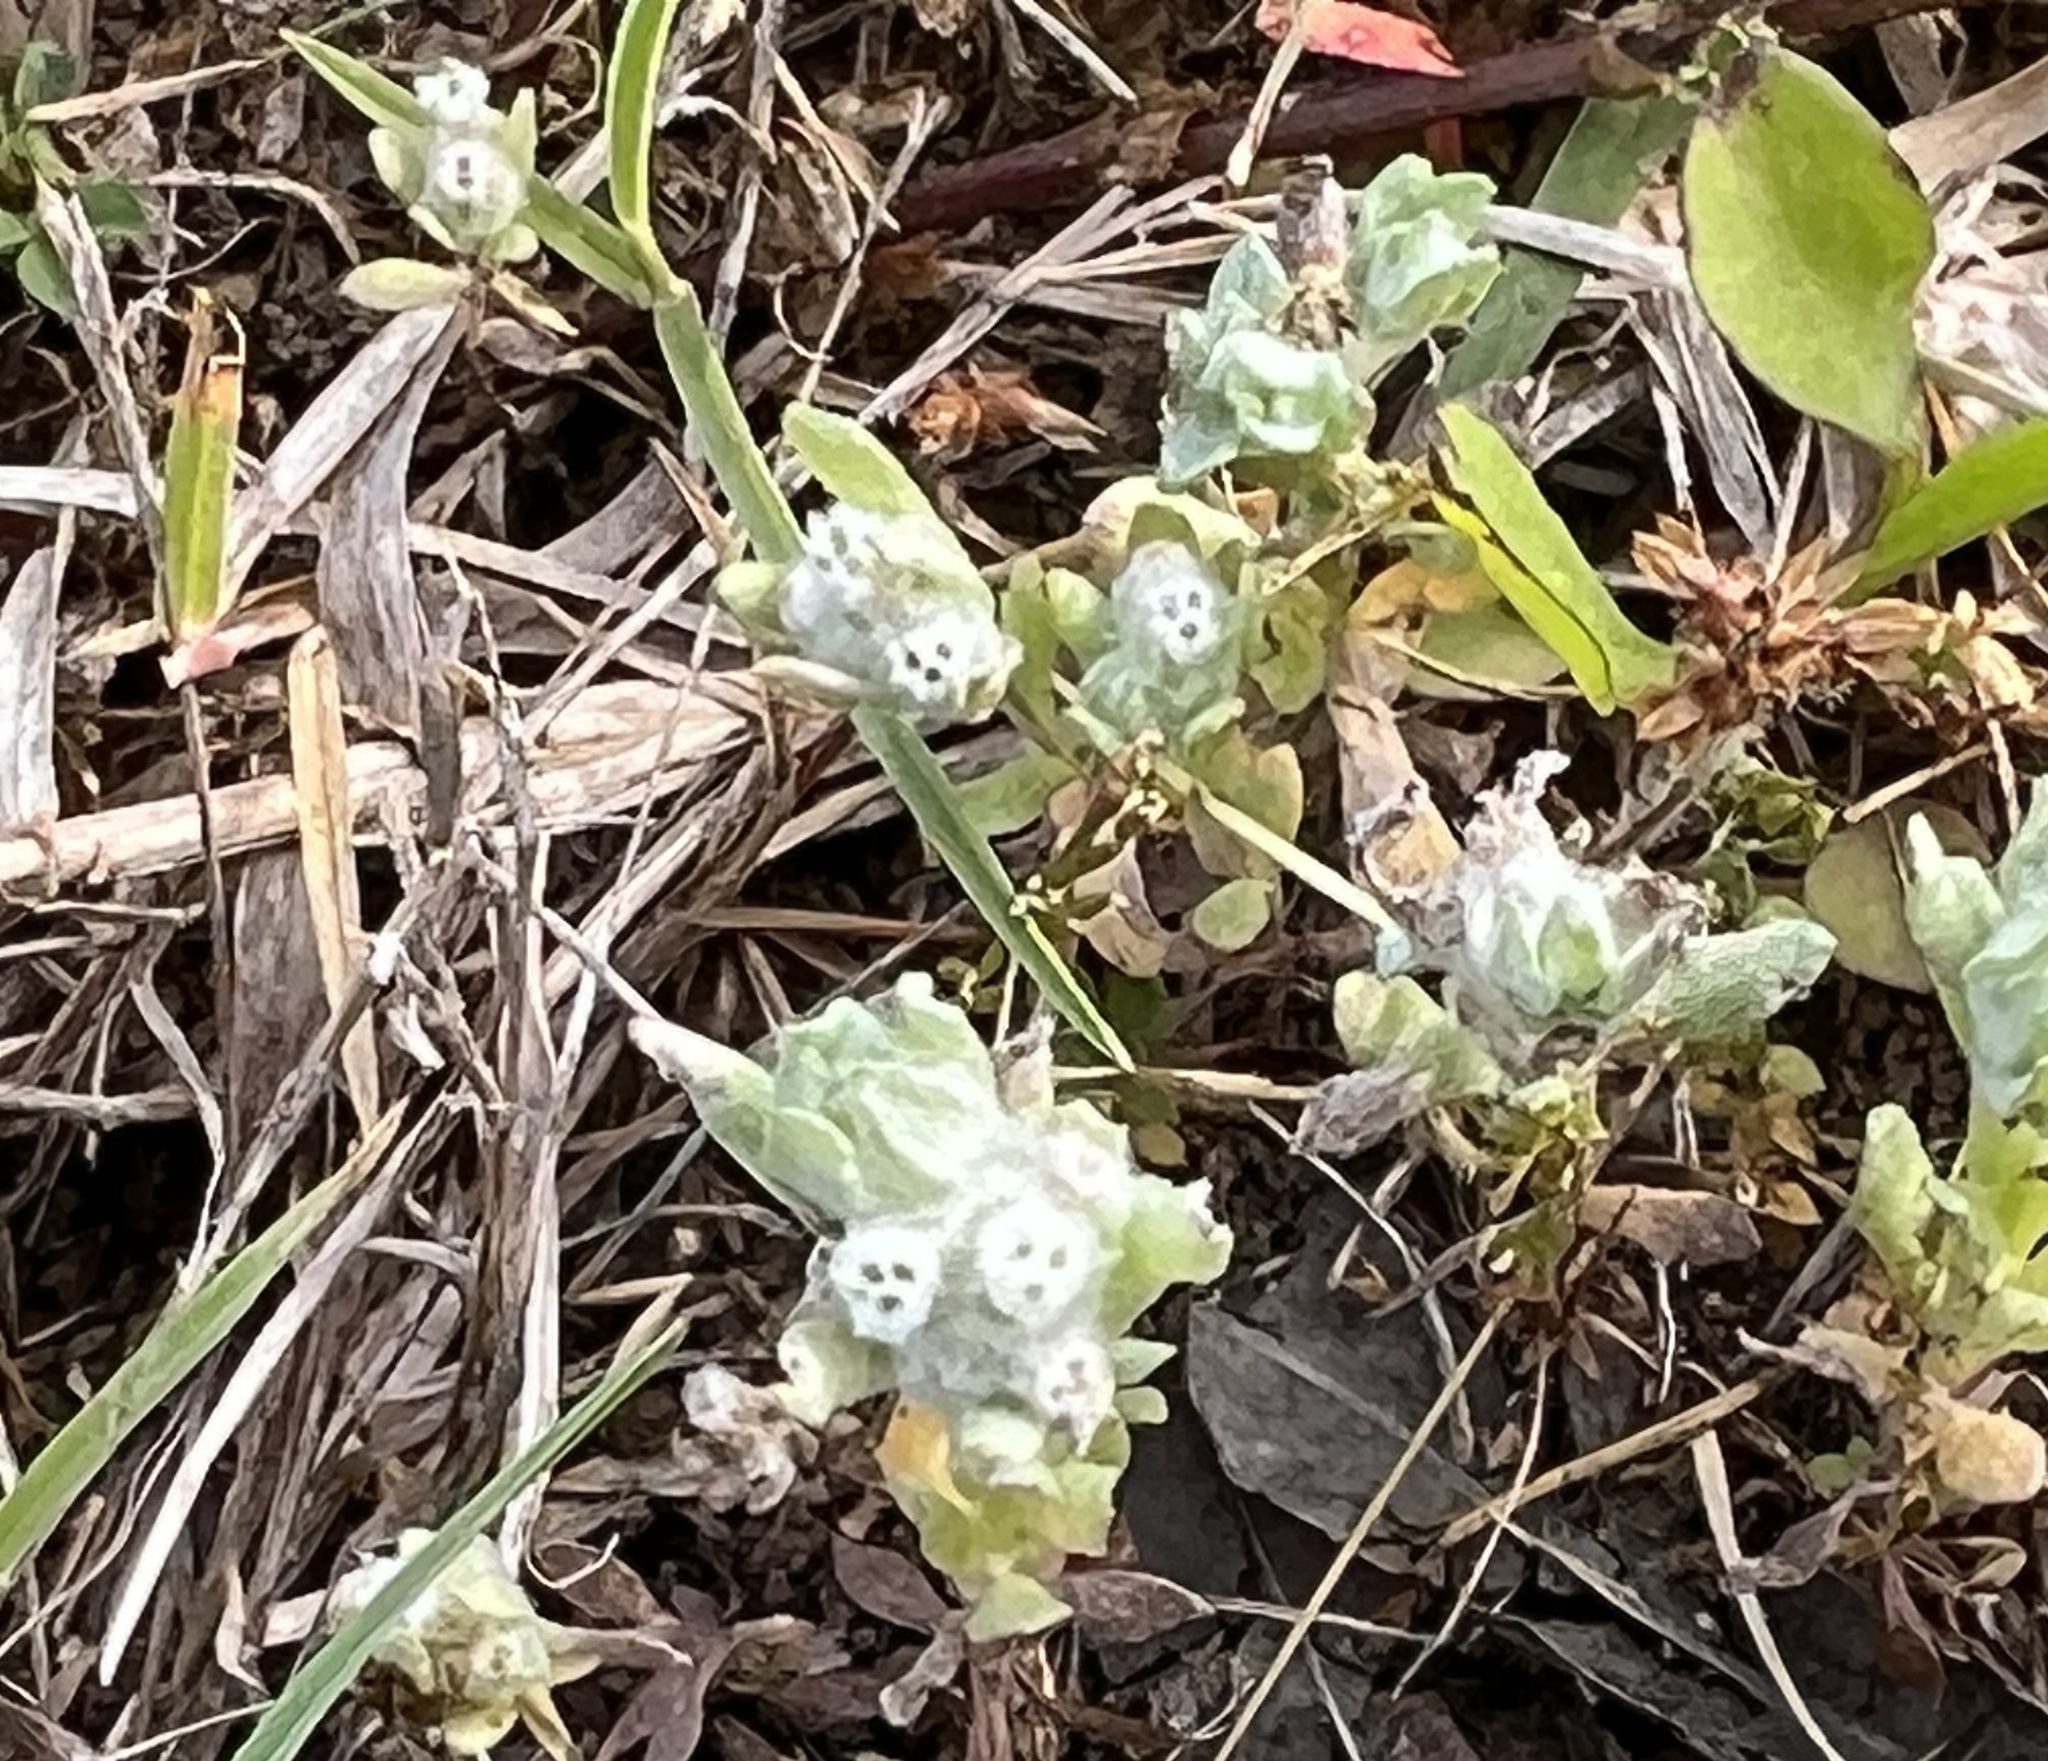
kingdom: Plantae
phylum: Tracheophyta
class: Magnoliopsida
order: Asterales
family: Asteraceae
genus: Diaperia
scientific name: Diaperia verna
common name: Many-stem rabbit-tobacco
